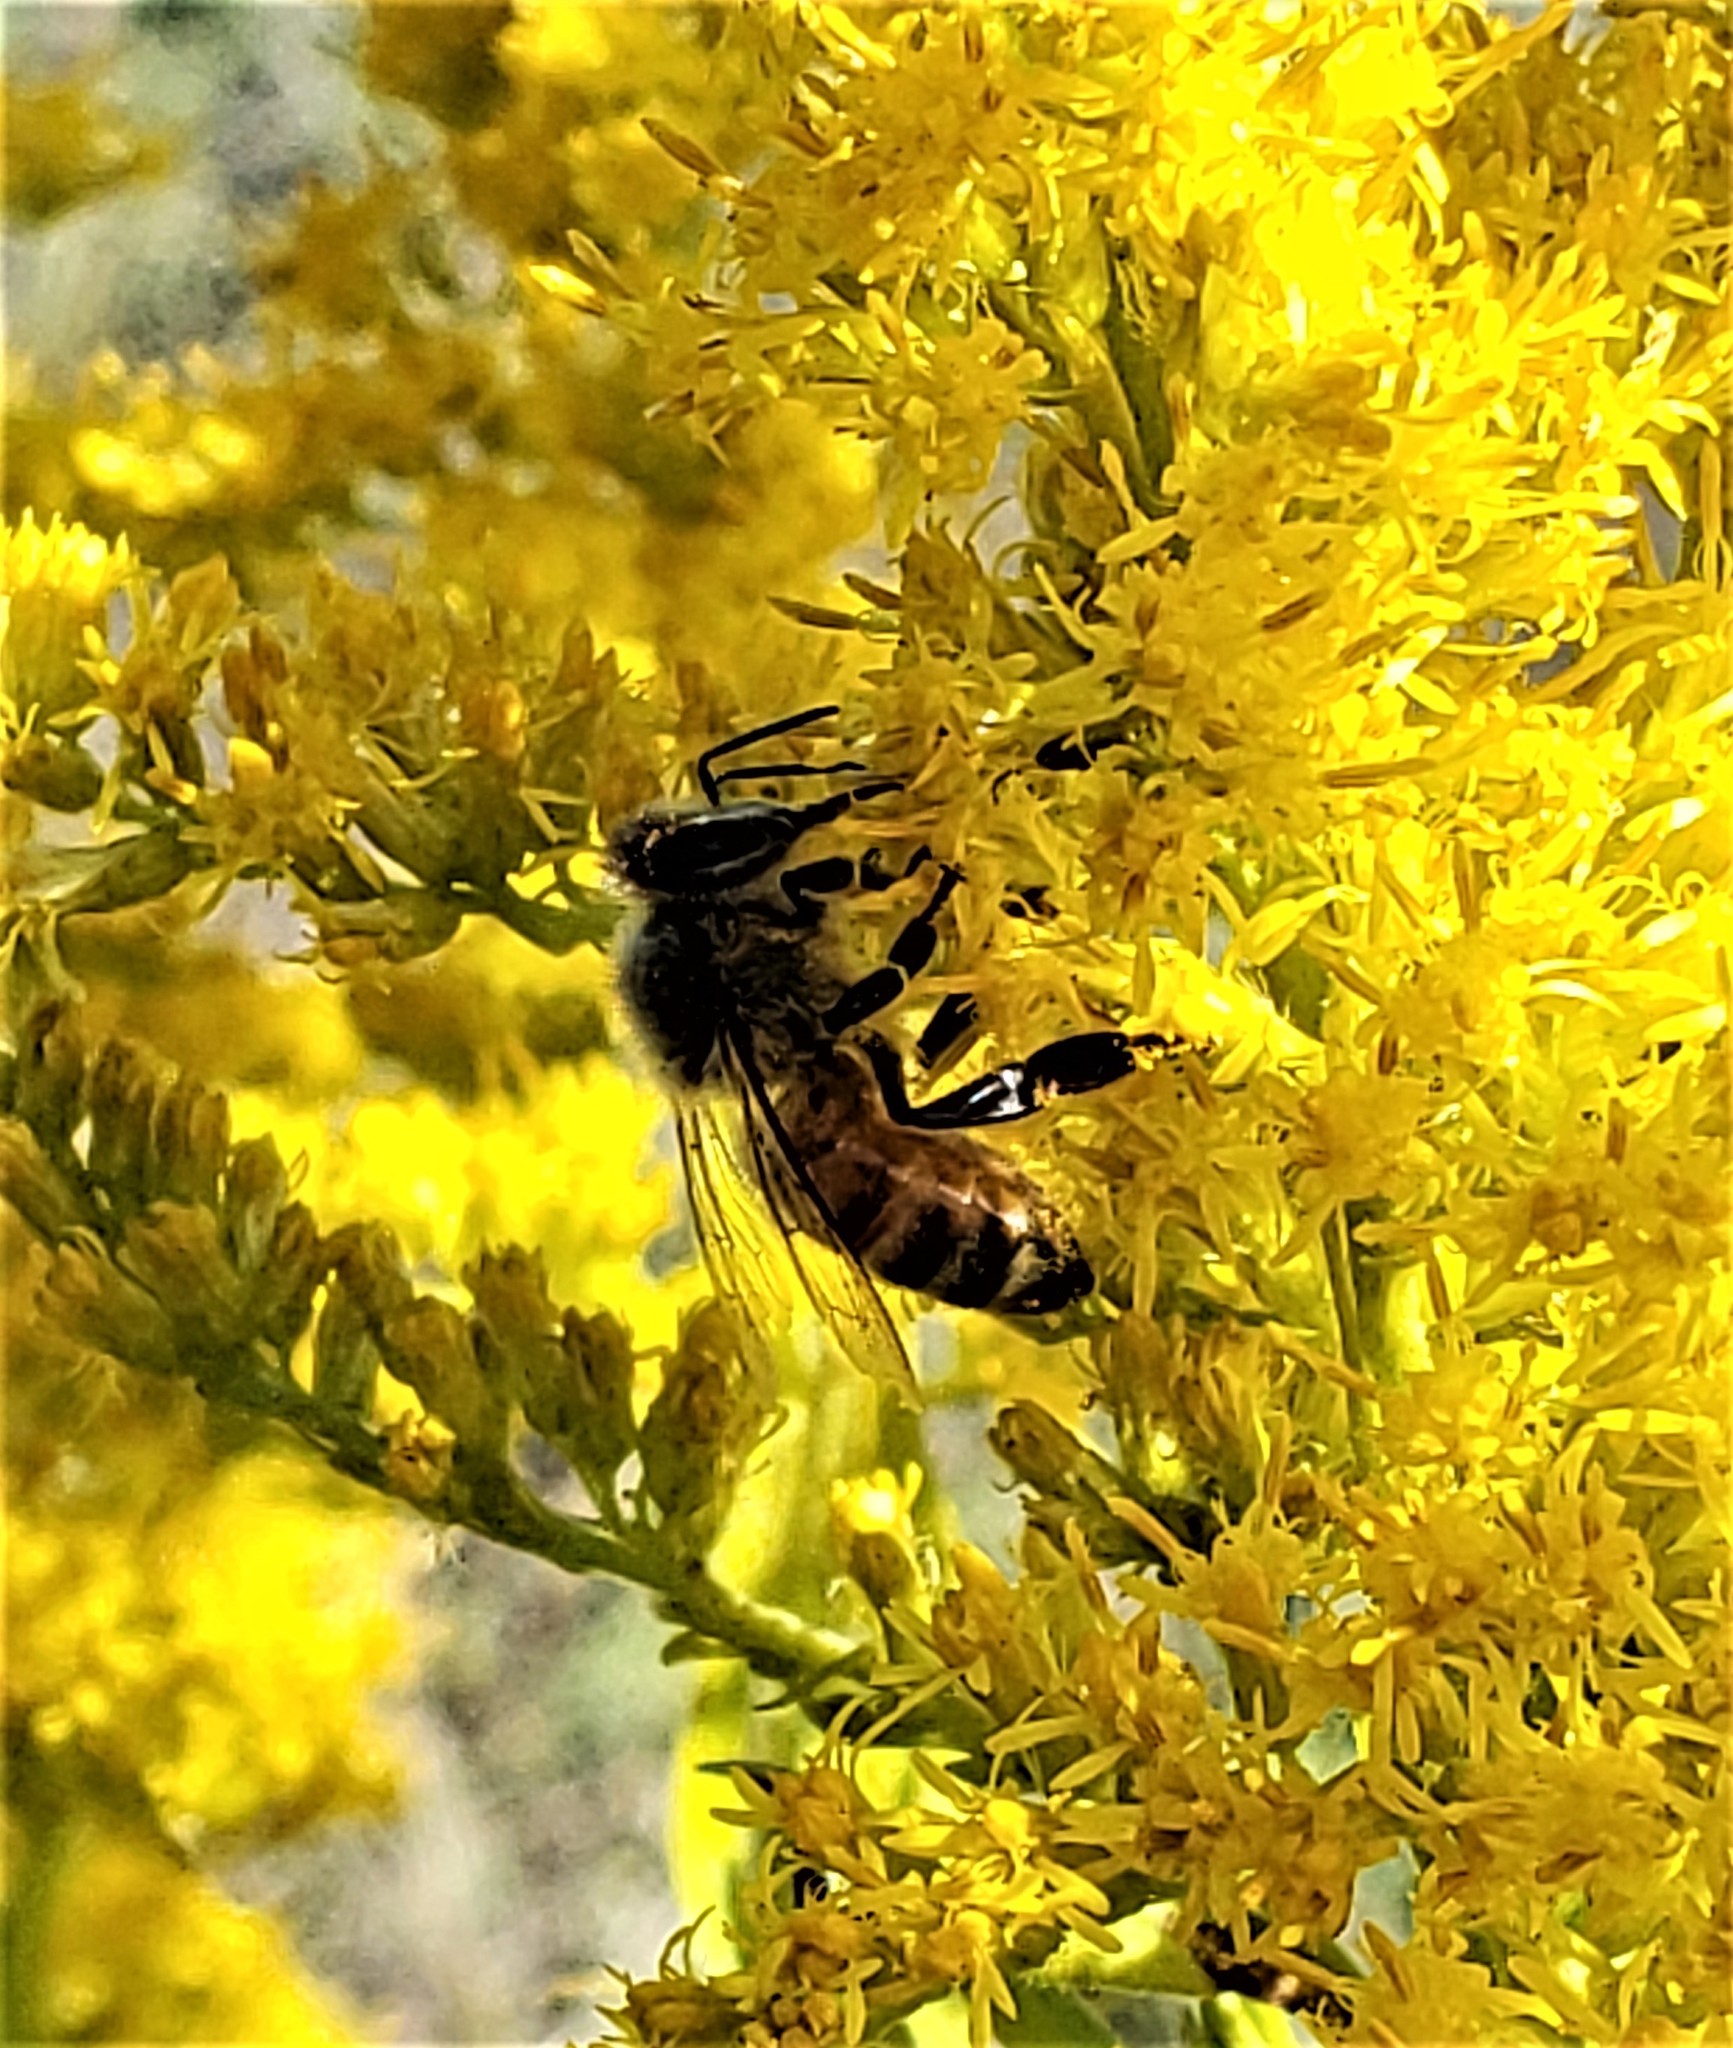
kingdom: Animalia
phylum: Arthropoda
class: Insecta
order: Hymenoptera
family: Apidae
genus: Apis
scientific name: Apis mellifera
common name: Honey bee
